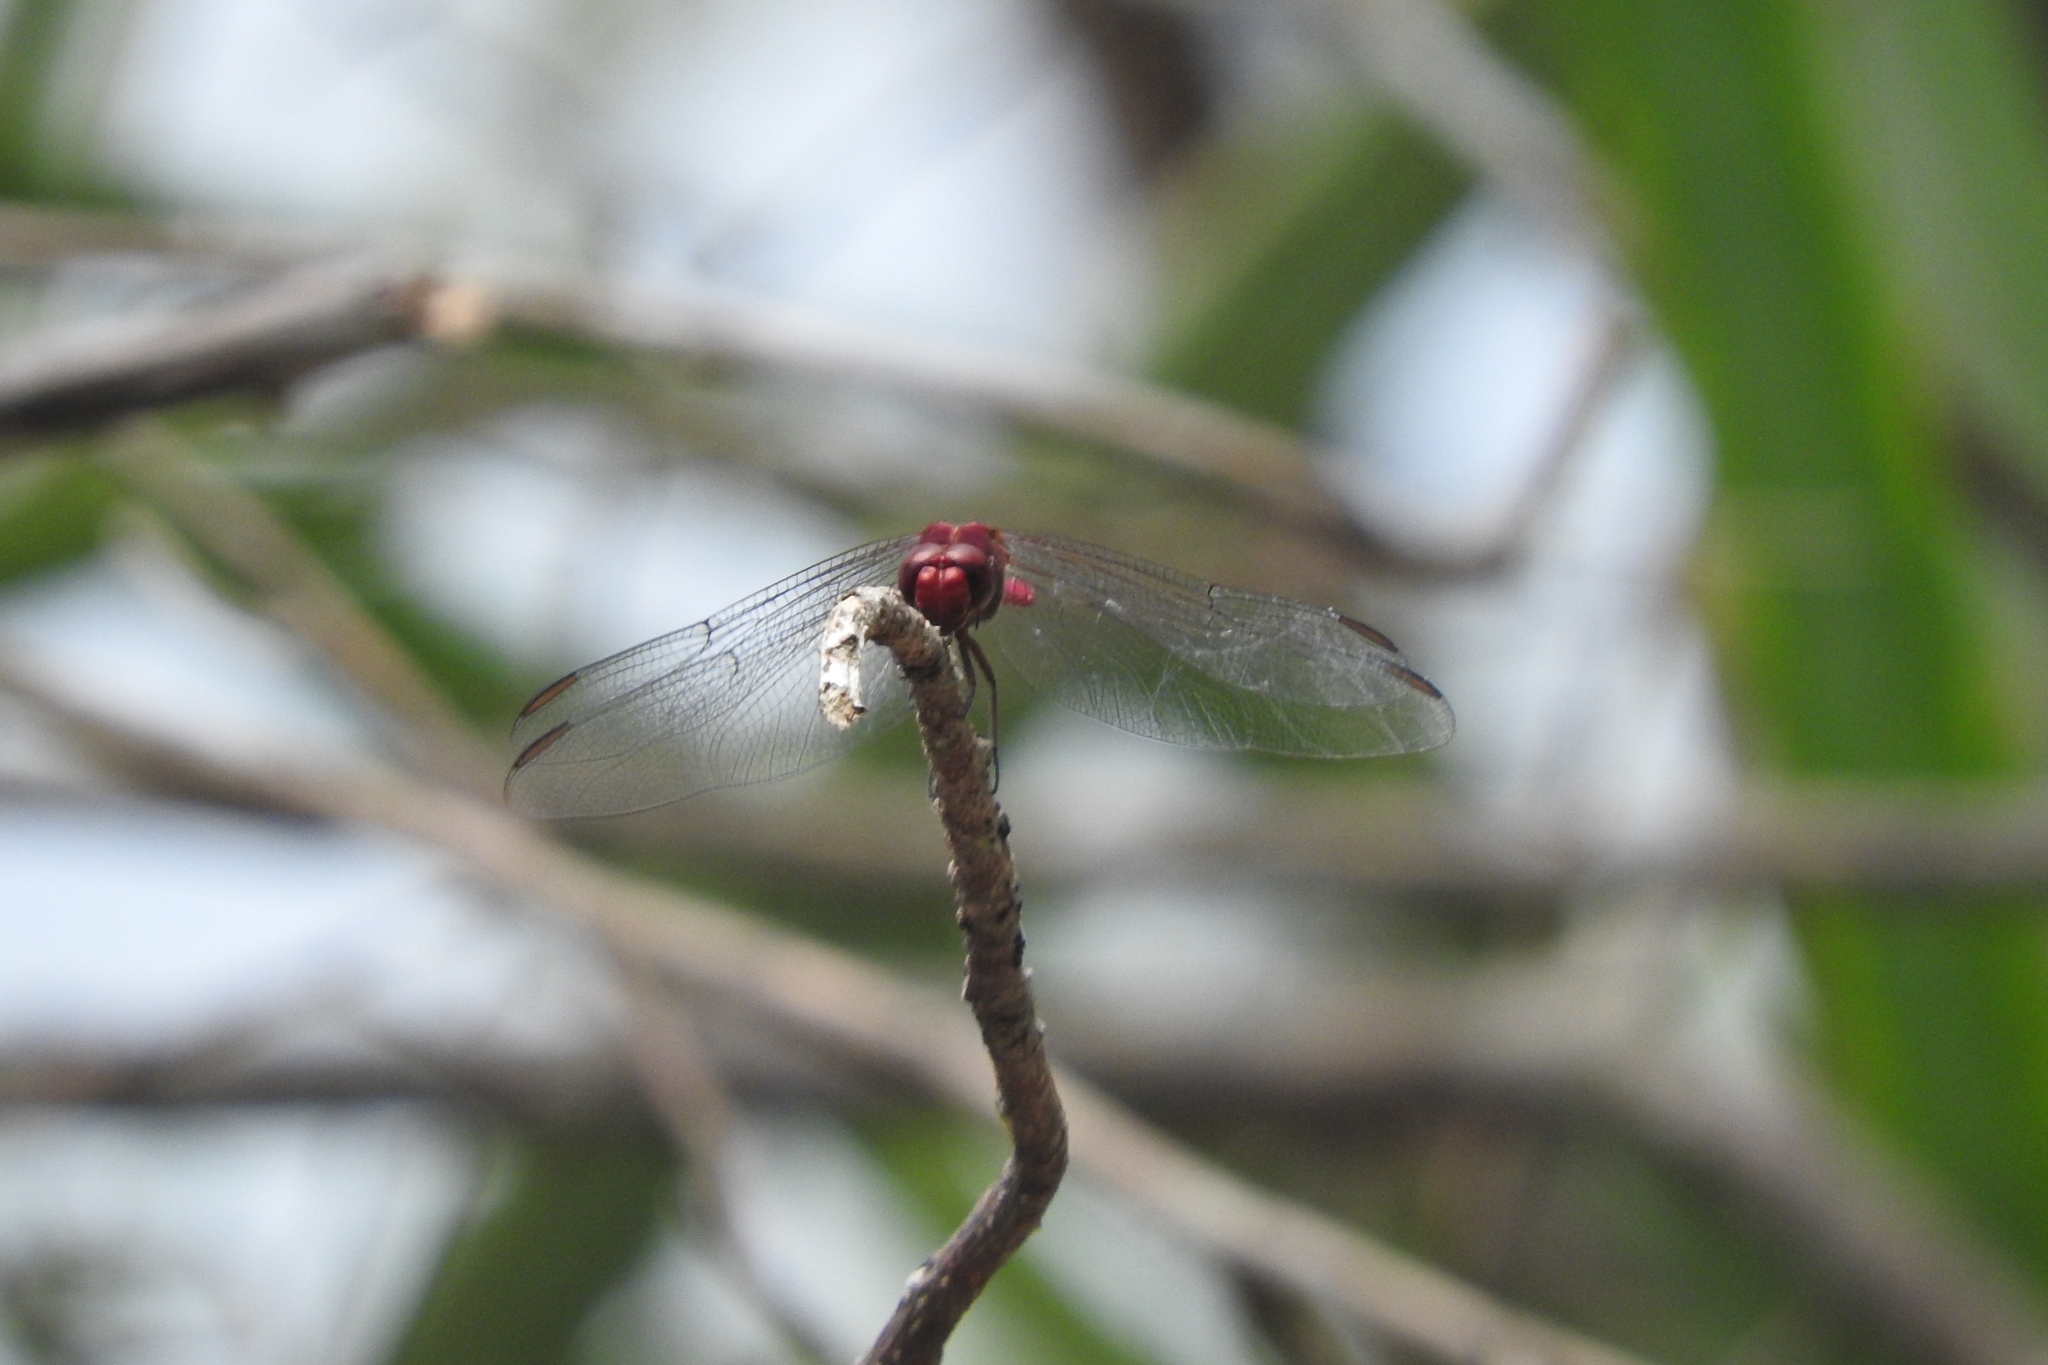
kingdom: Animalia
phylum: Arthropoda
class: Insecta
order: Odonata
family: Libellulidae
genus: Orthemis
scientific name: Orthemis discolor
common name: Carmine skimmer
